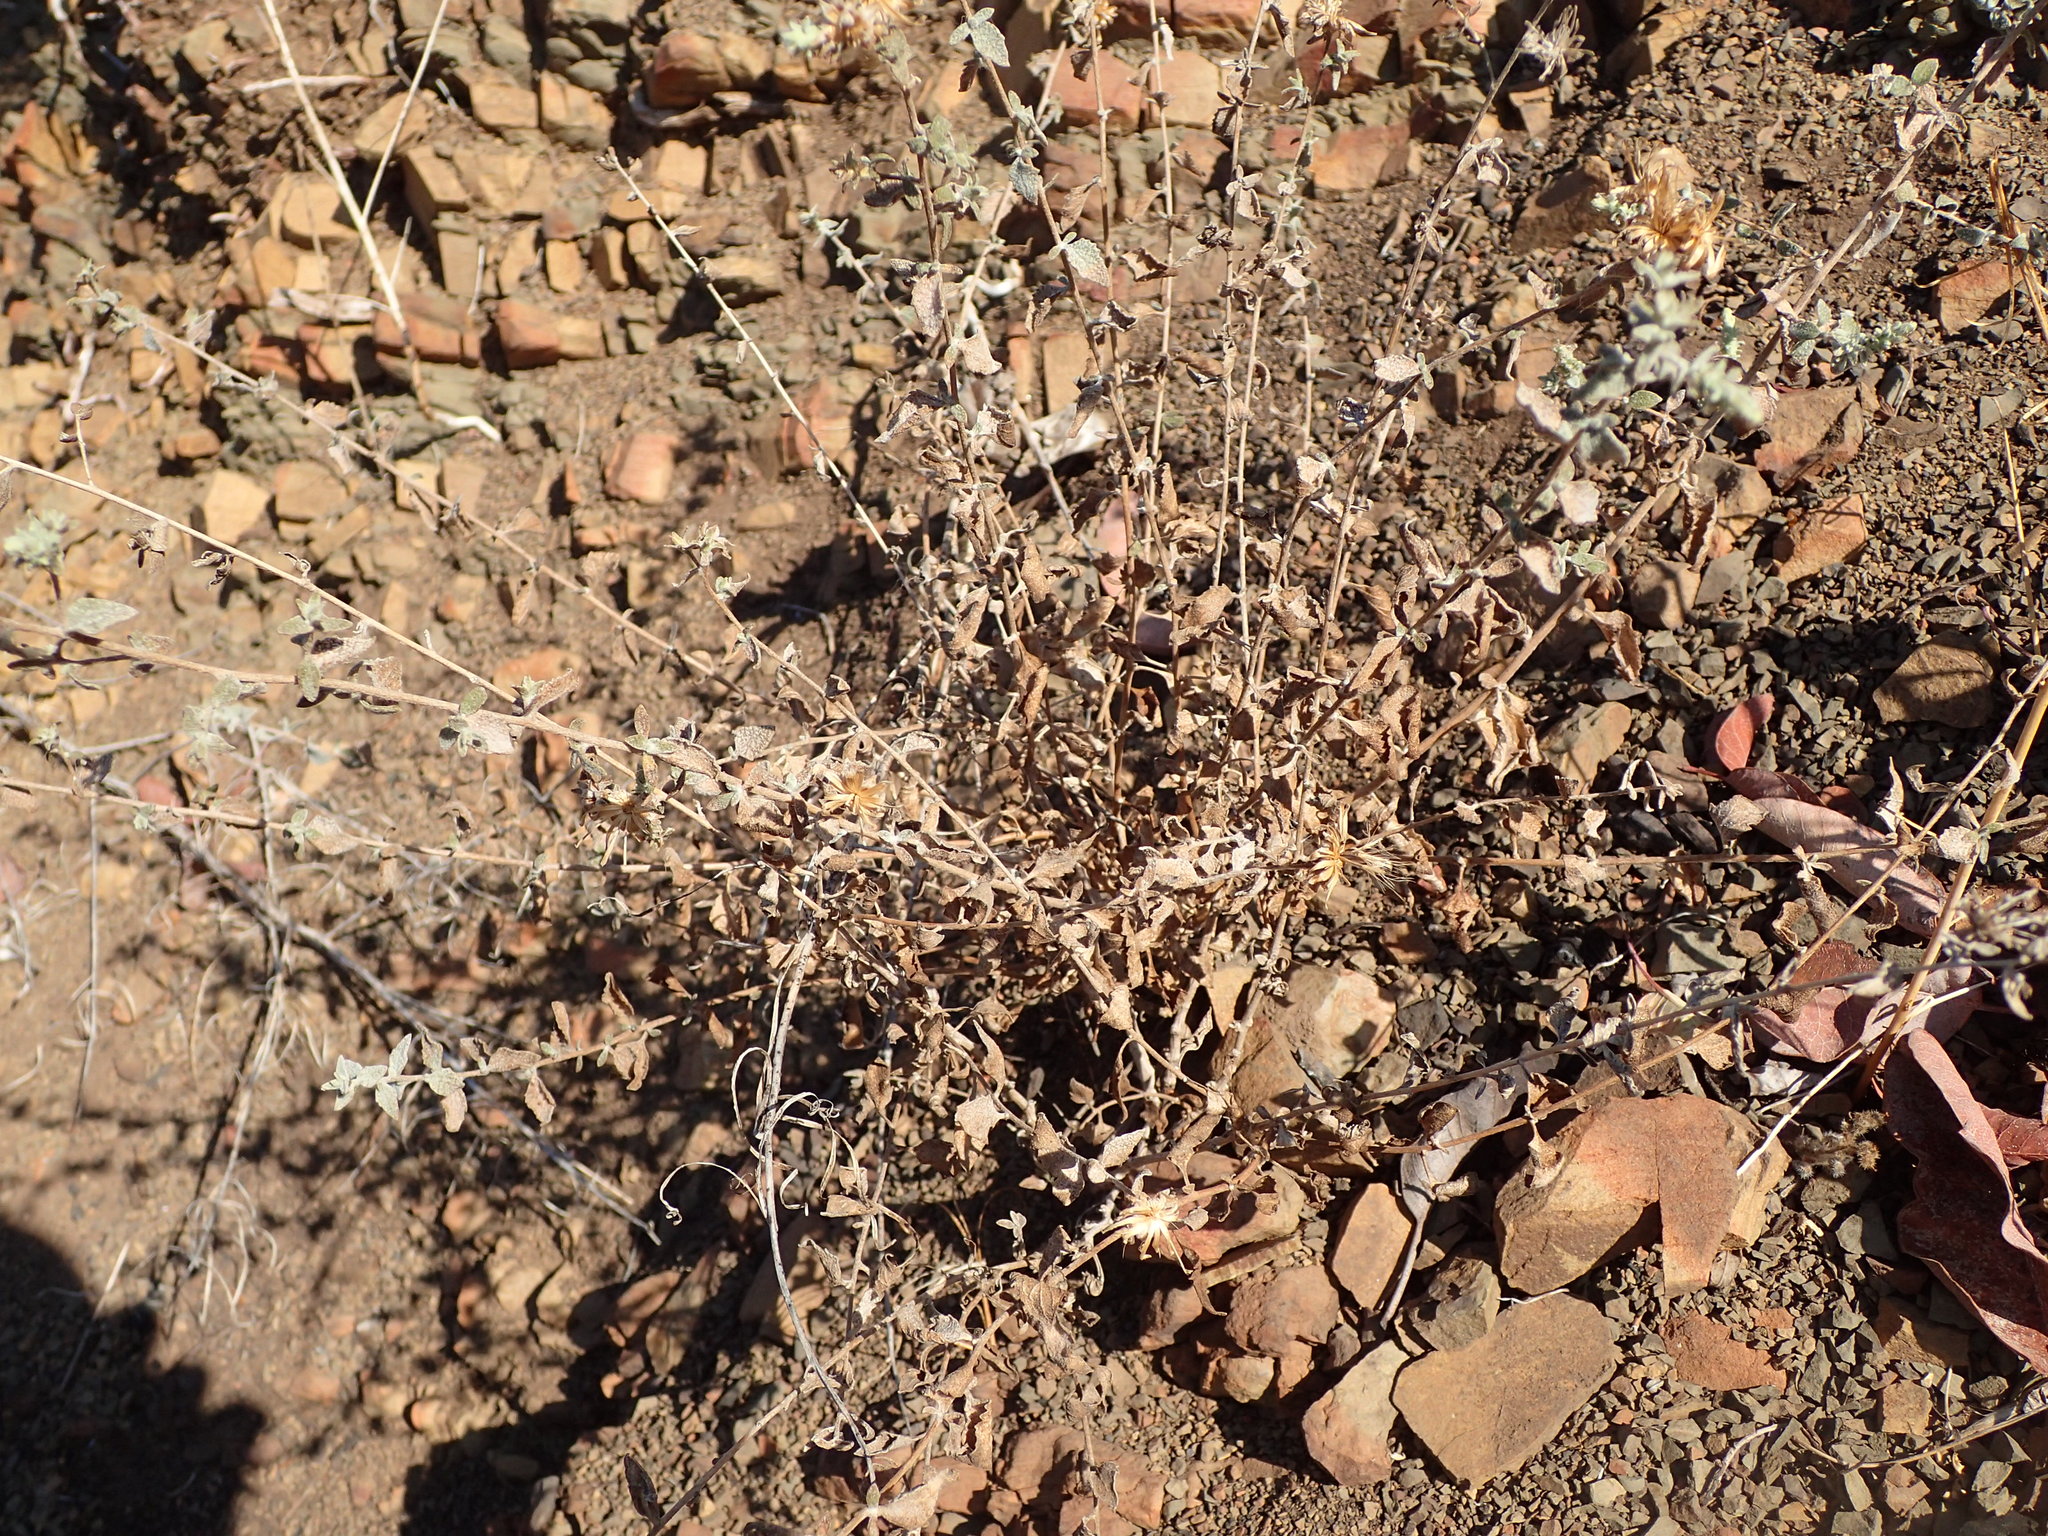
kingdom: Plantae
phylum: Tracheophyta
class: Magnoliopsida
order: Asterales
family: Asteraceae
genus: Brickellia
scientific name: Brickellia nevinii
